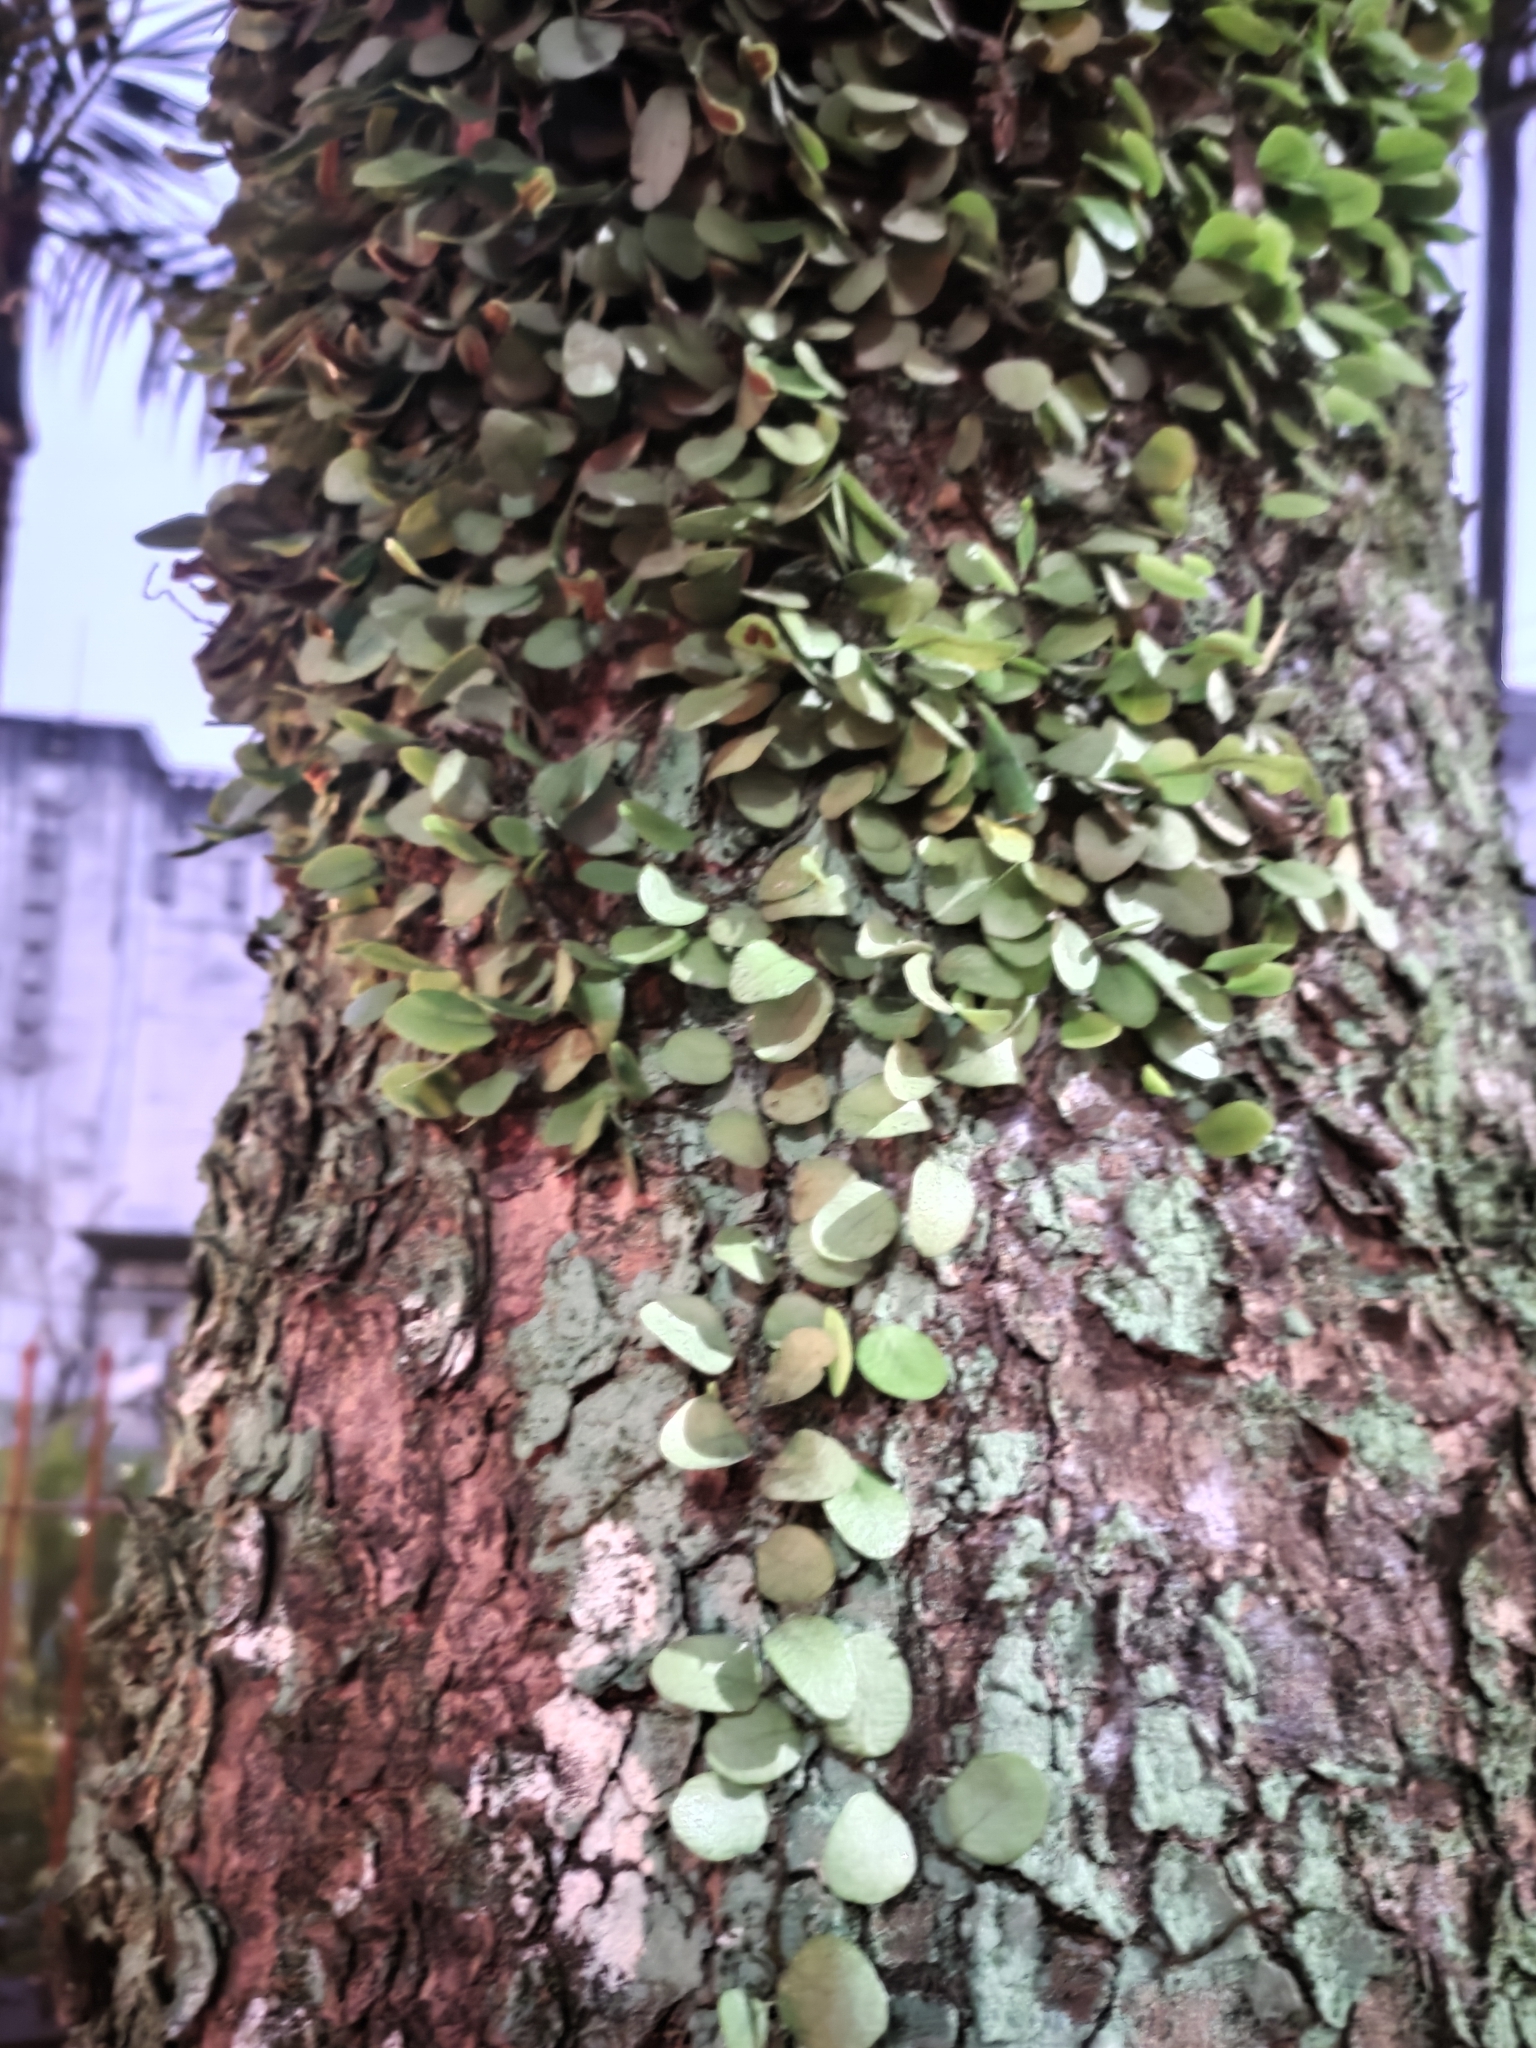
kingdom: Plantae
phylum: Tracheophyta
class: Polypodiopsida
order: Polypodiales
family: Polypodiaceae
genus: Lepisorus
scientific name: Lepisorus microphyllus
